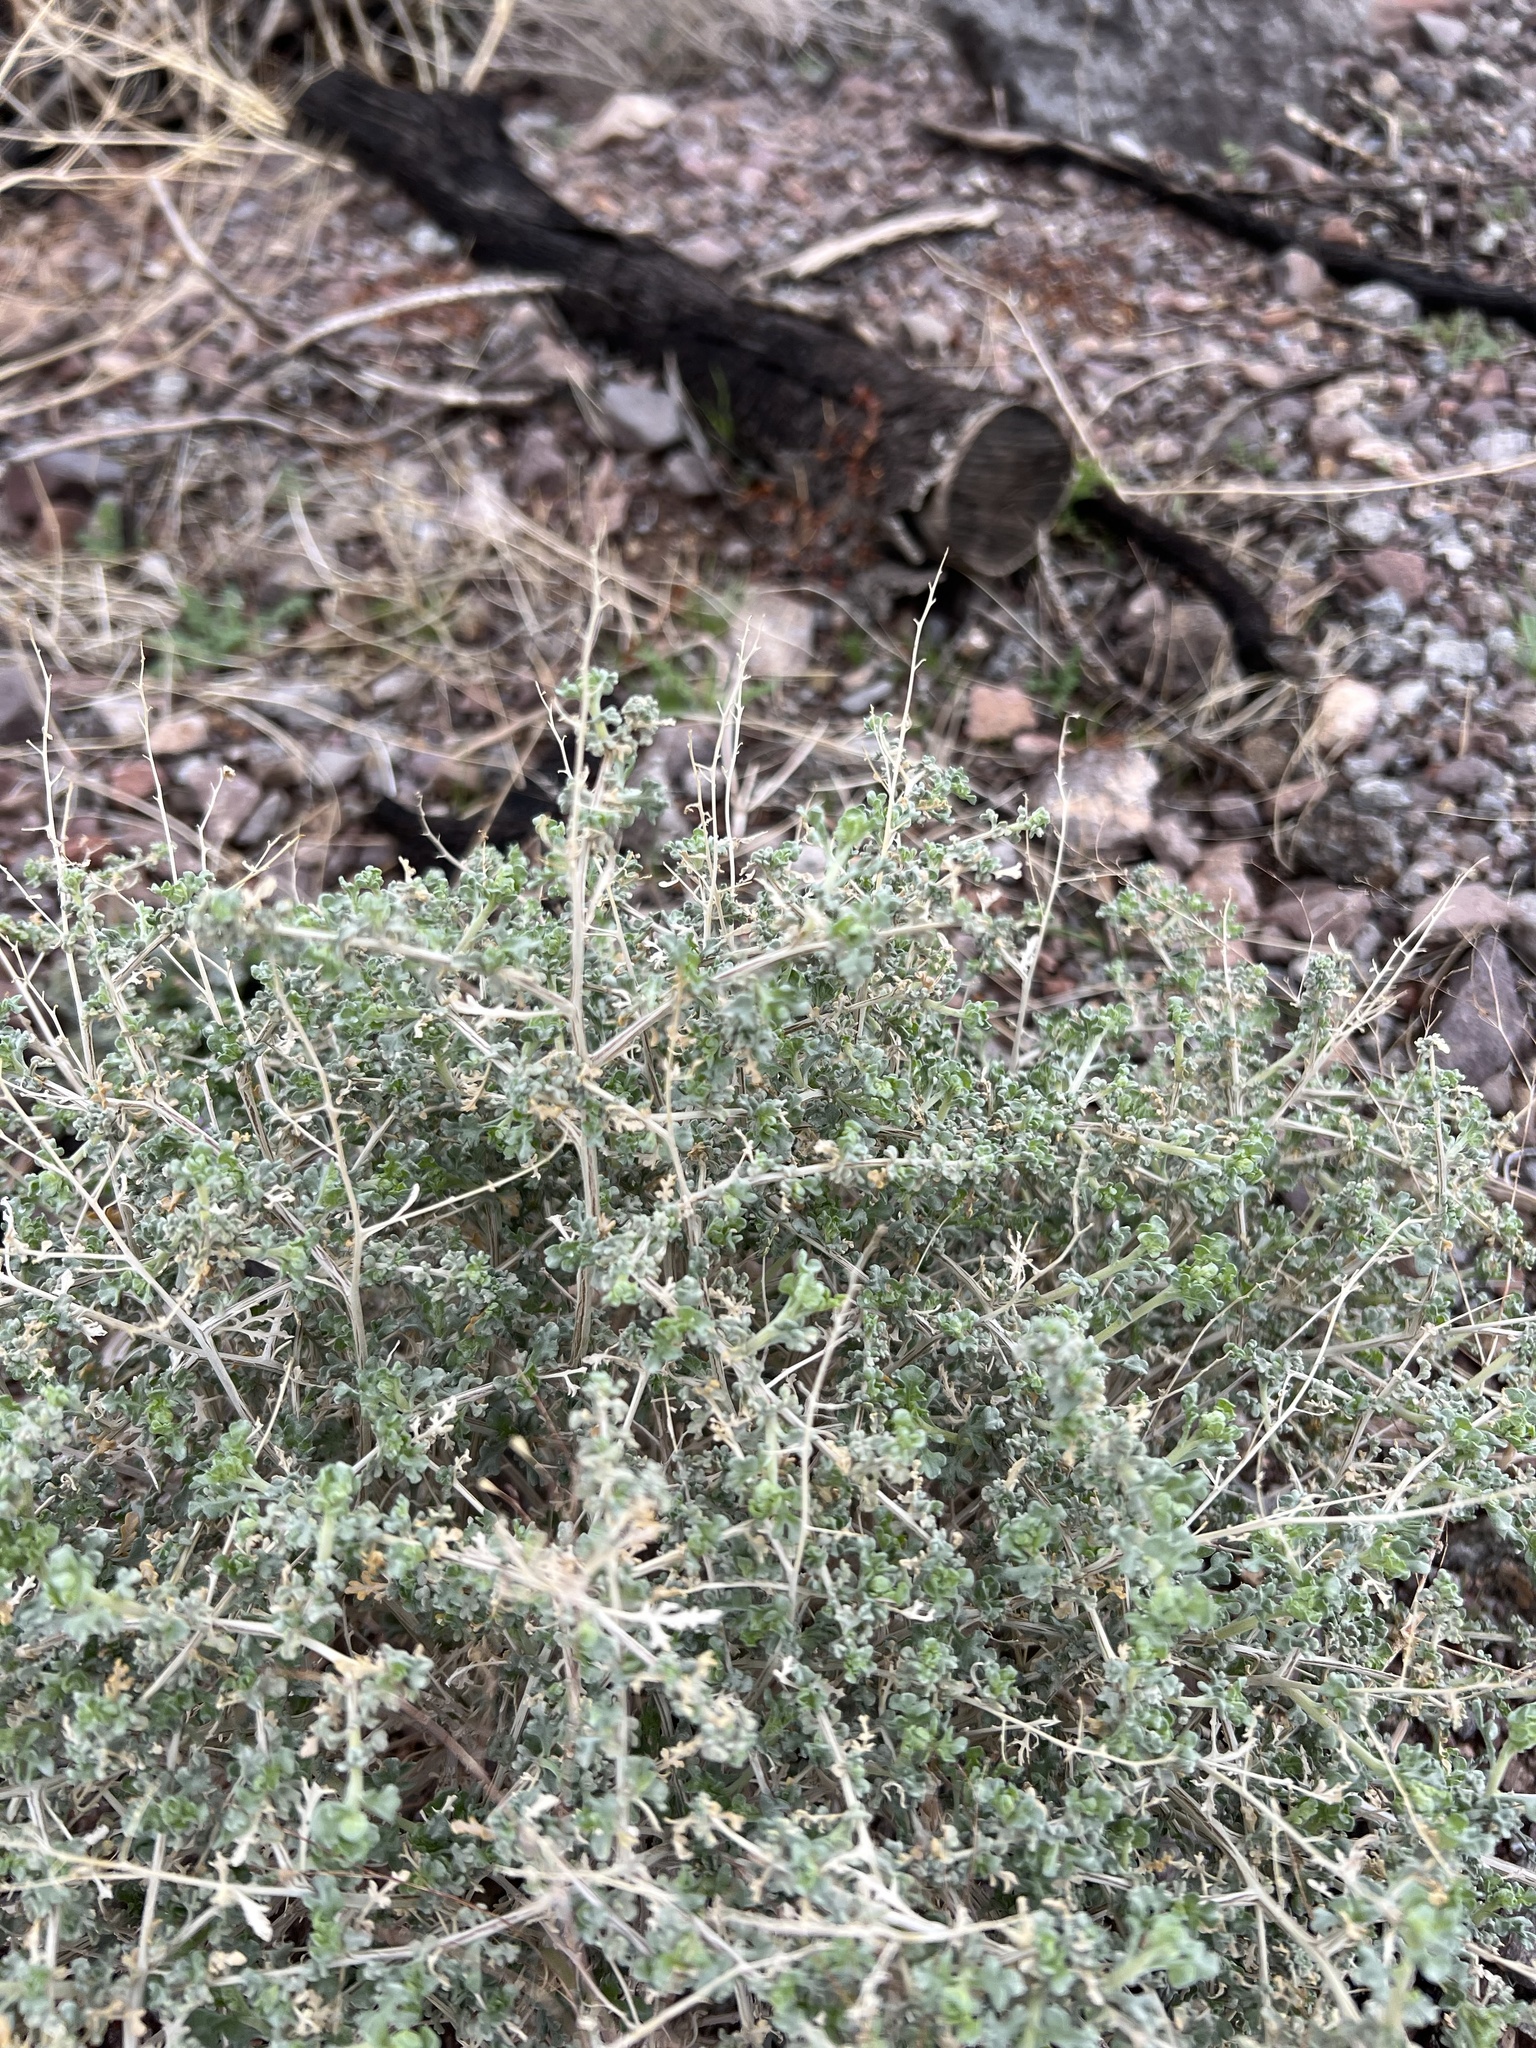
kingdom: Plantae
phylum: Tracheophyta
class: Magnoliopsida
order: Asterales
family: Asteraceae
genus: Ambrosia
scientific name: Ambrosia dumosa
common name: Bur-sage
